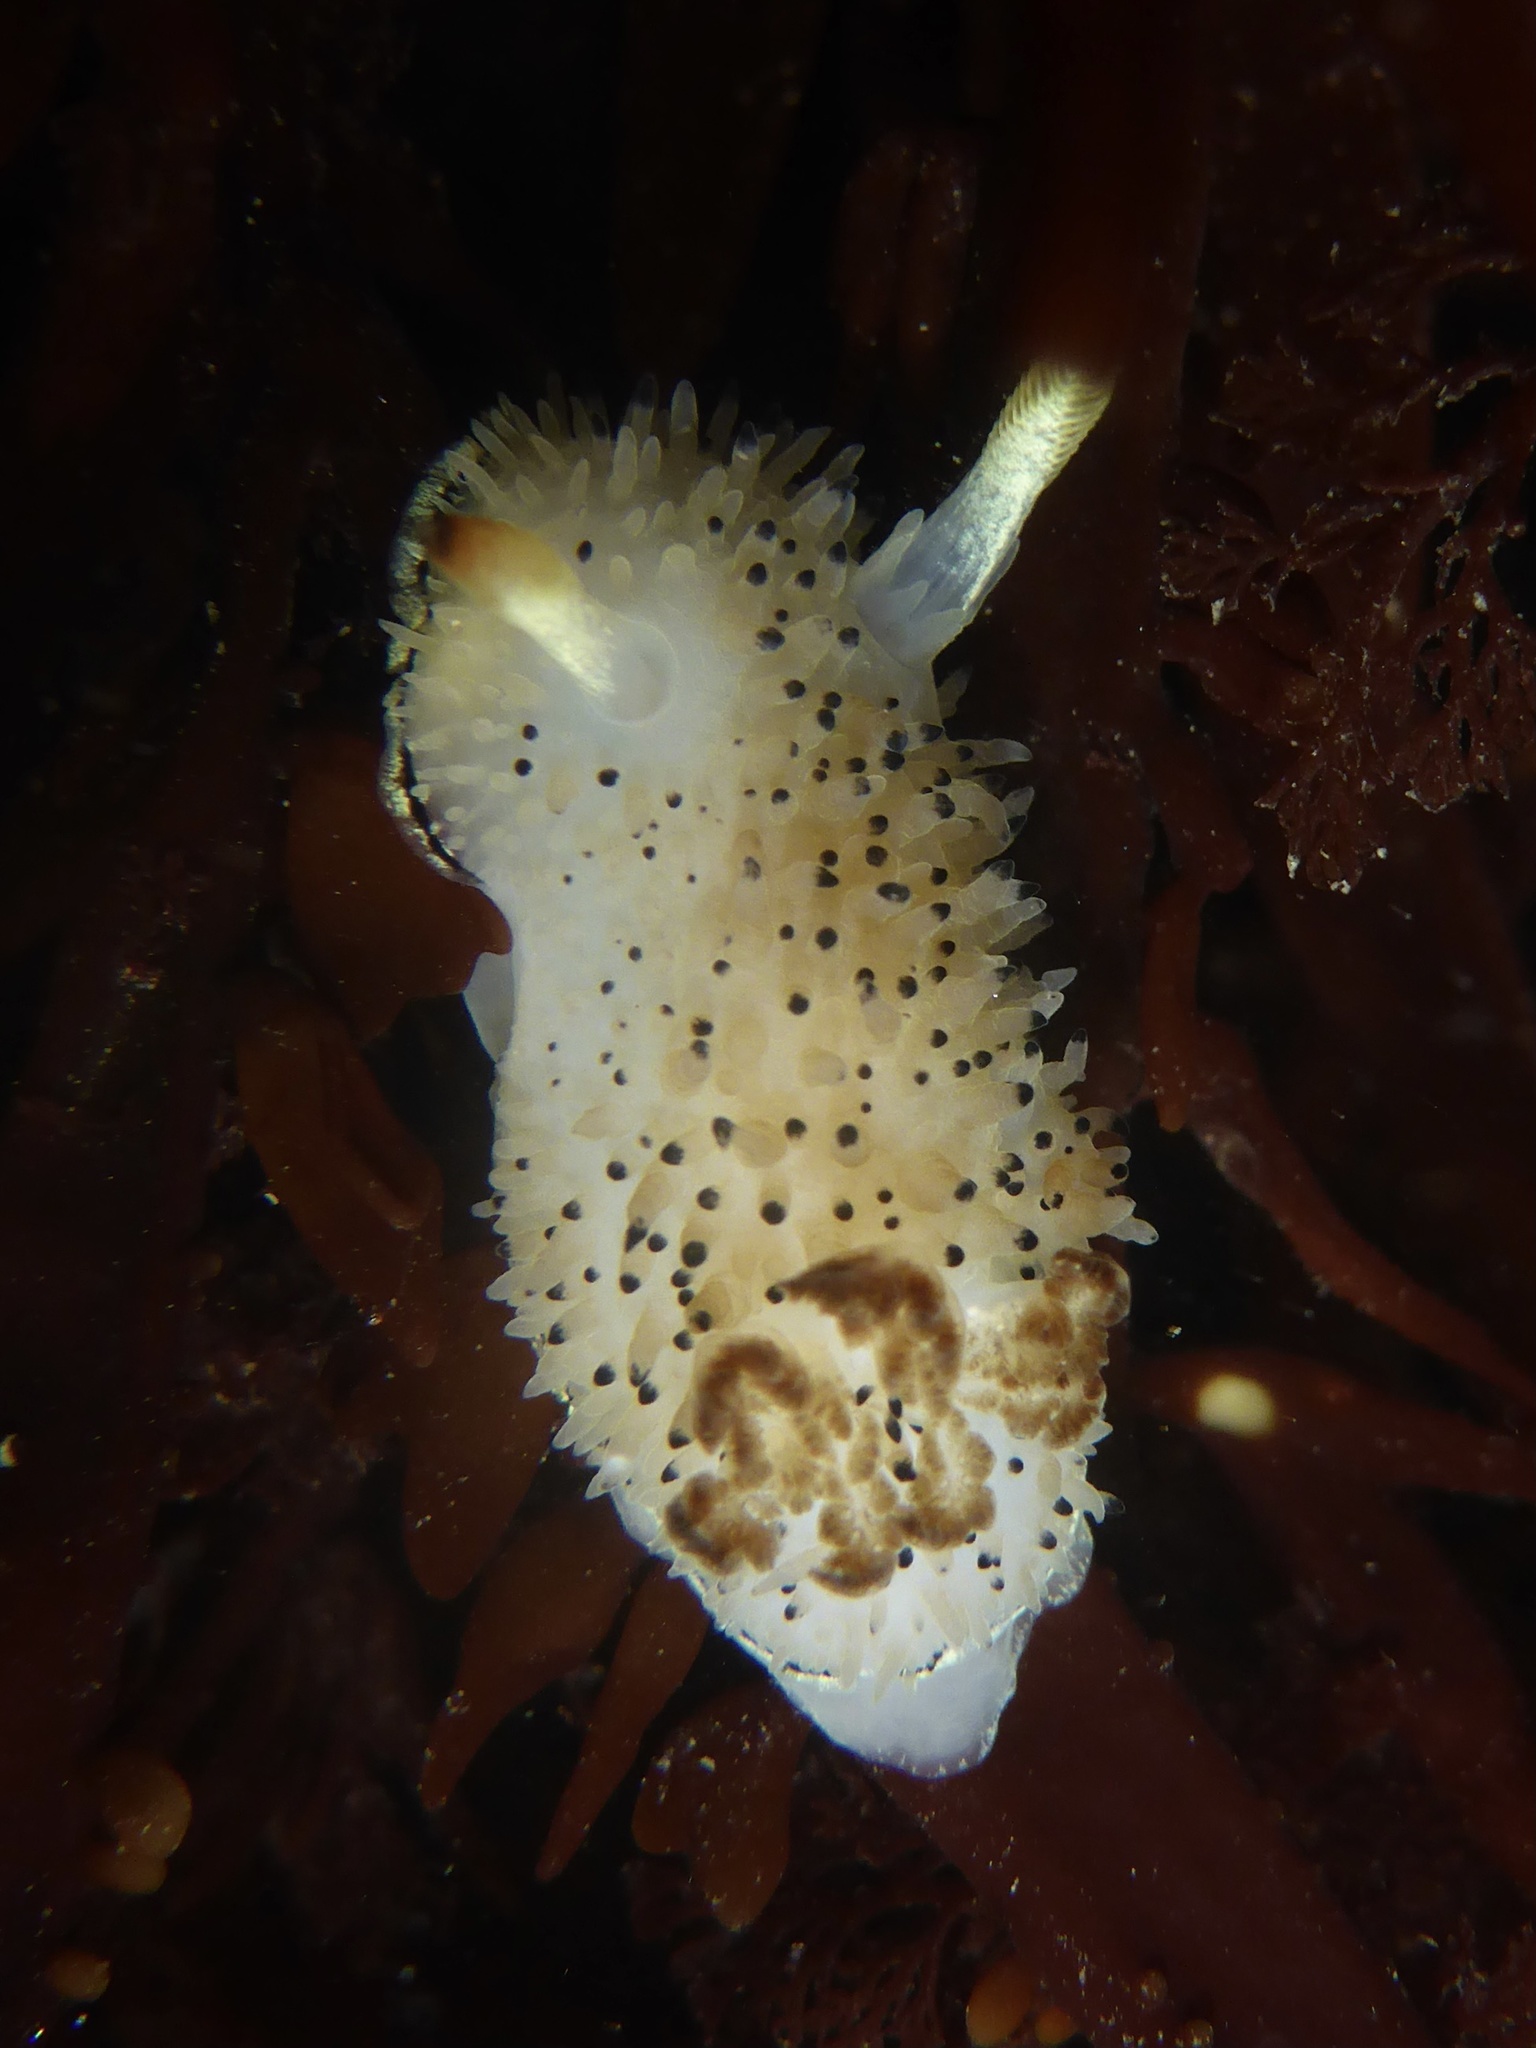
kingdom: Animalia
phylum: Mollusca
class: Gastropoda
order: Nudibranchia
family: Onchidorididae
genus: Acanthodoris
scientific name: Acanthodoris rhodoceras
